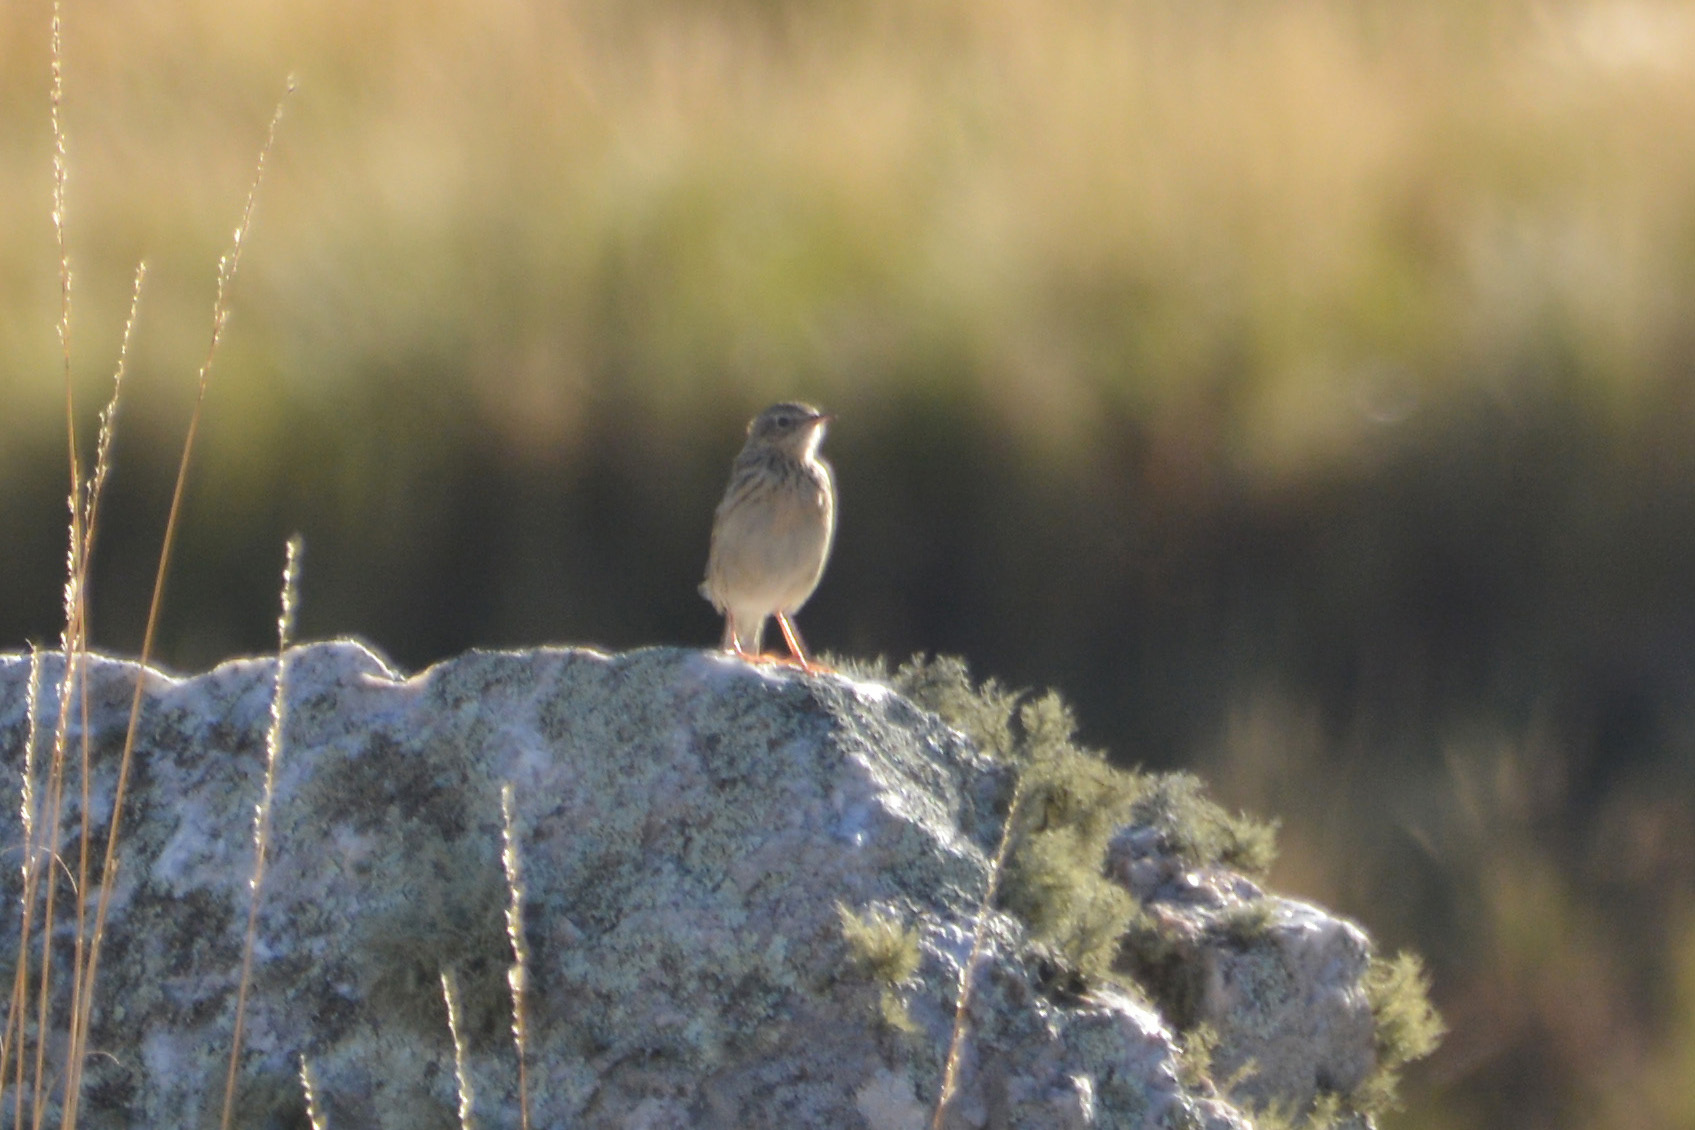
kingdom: Animalia
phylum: Chordata
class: Aves
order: Passeriformes
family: Motacillidae
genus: Anthus
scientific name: Anthus hellmayri
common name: Hellmayr's pipit
